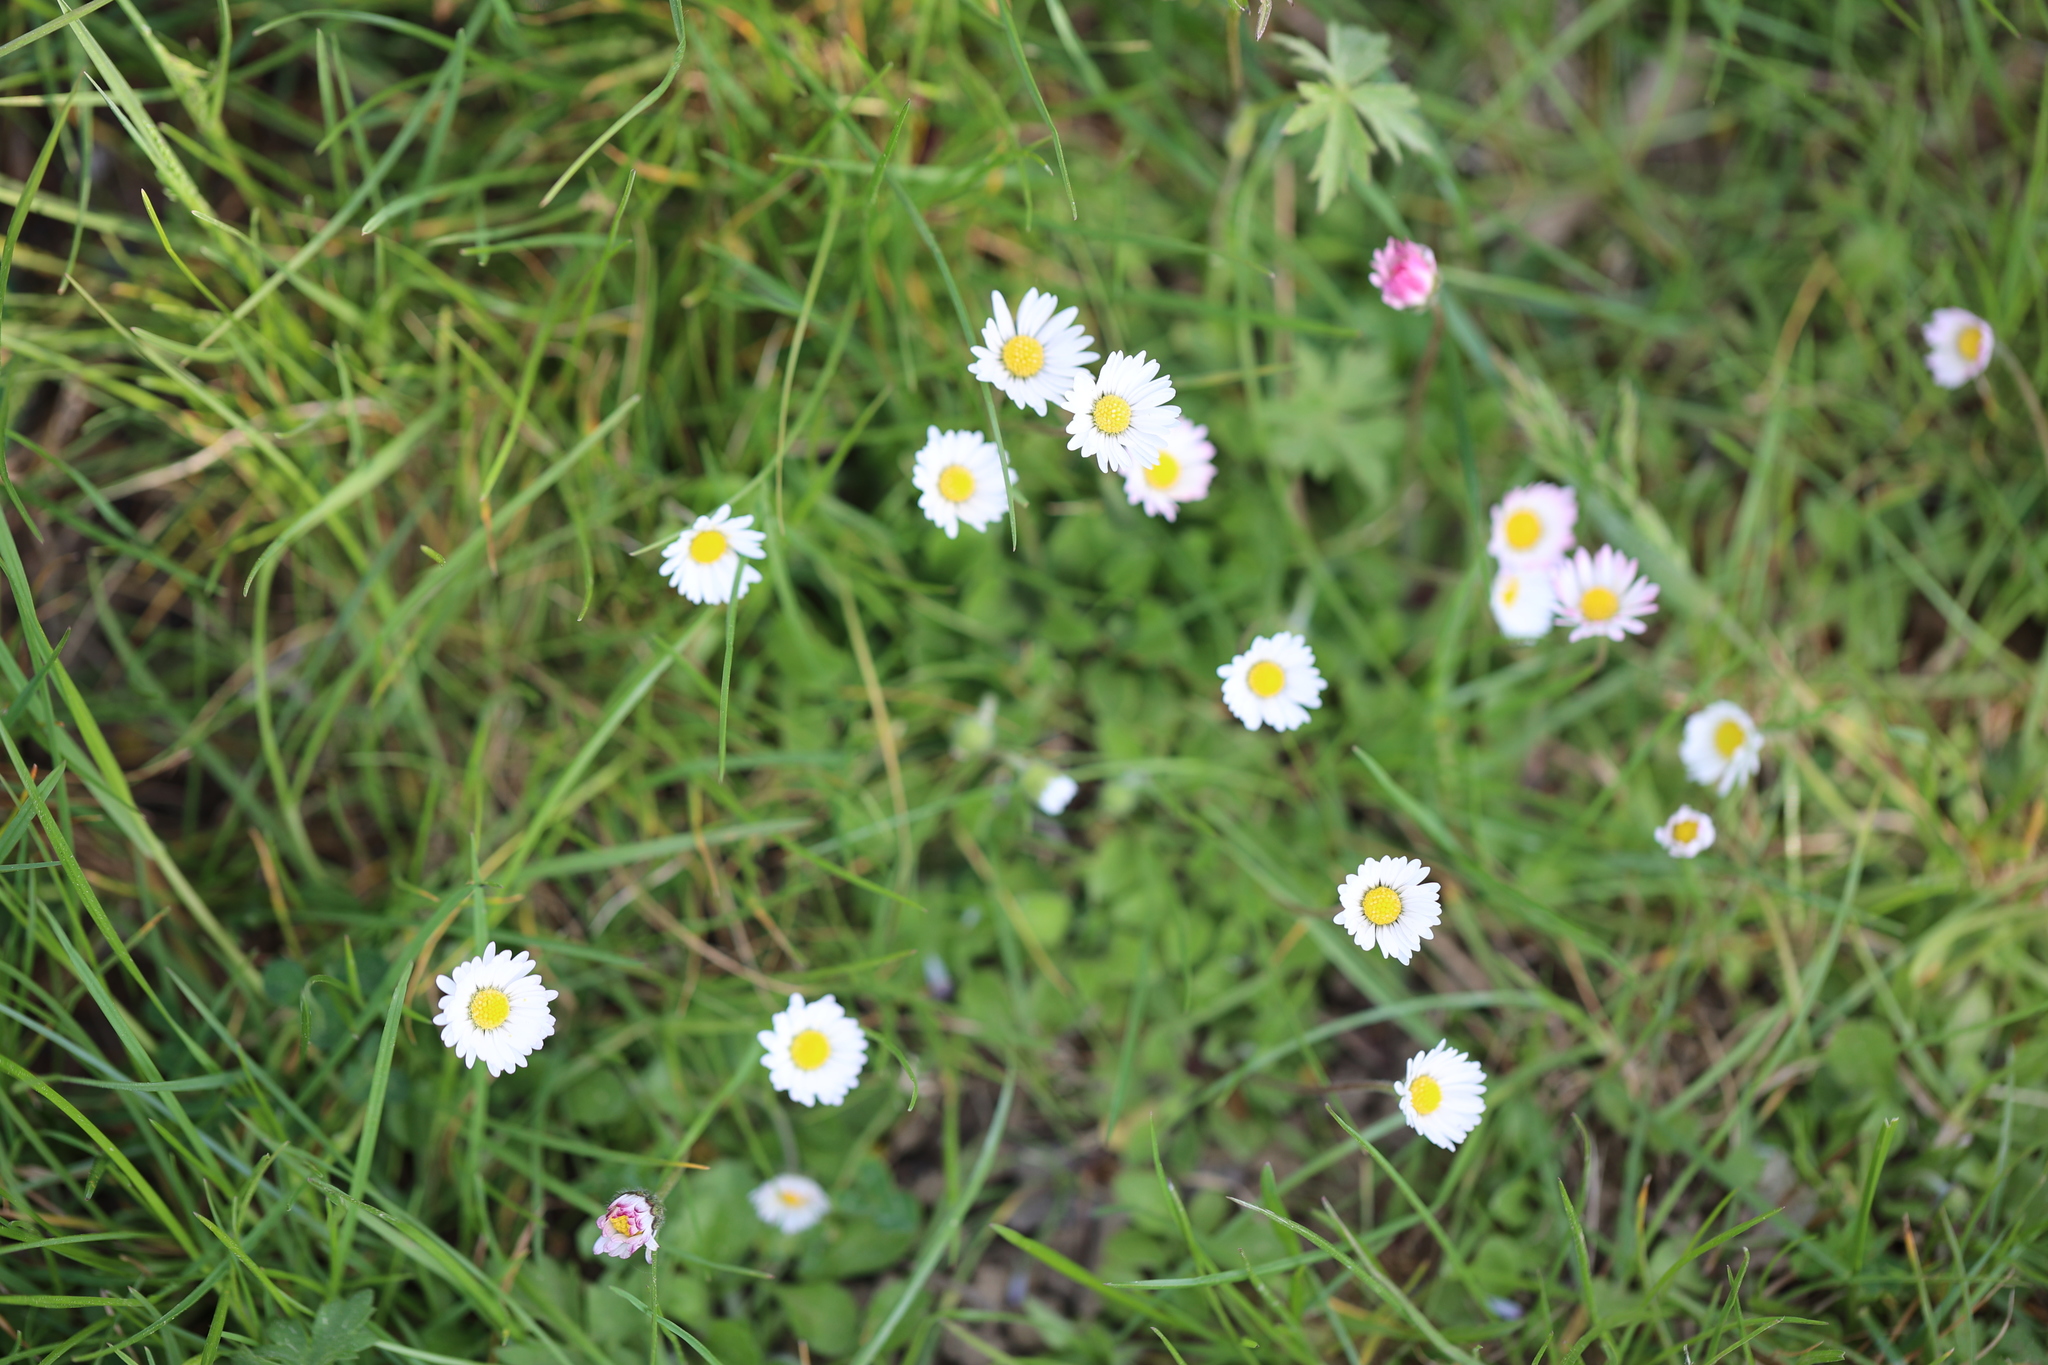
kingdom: Plantae
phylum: Tracheophyta
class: Magnoliopsida
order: Asterales
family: Asteraceae
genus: Bellis
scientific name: Bellis perennis
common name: Lawndaisy
